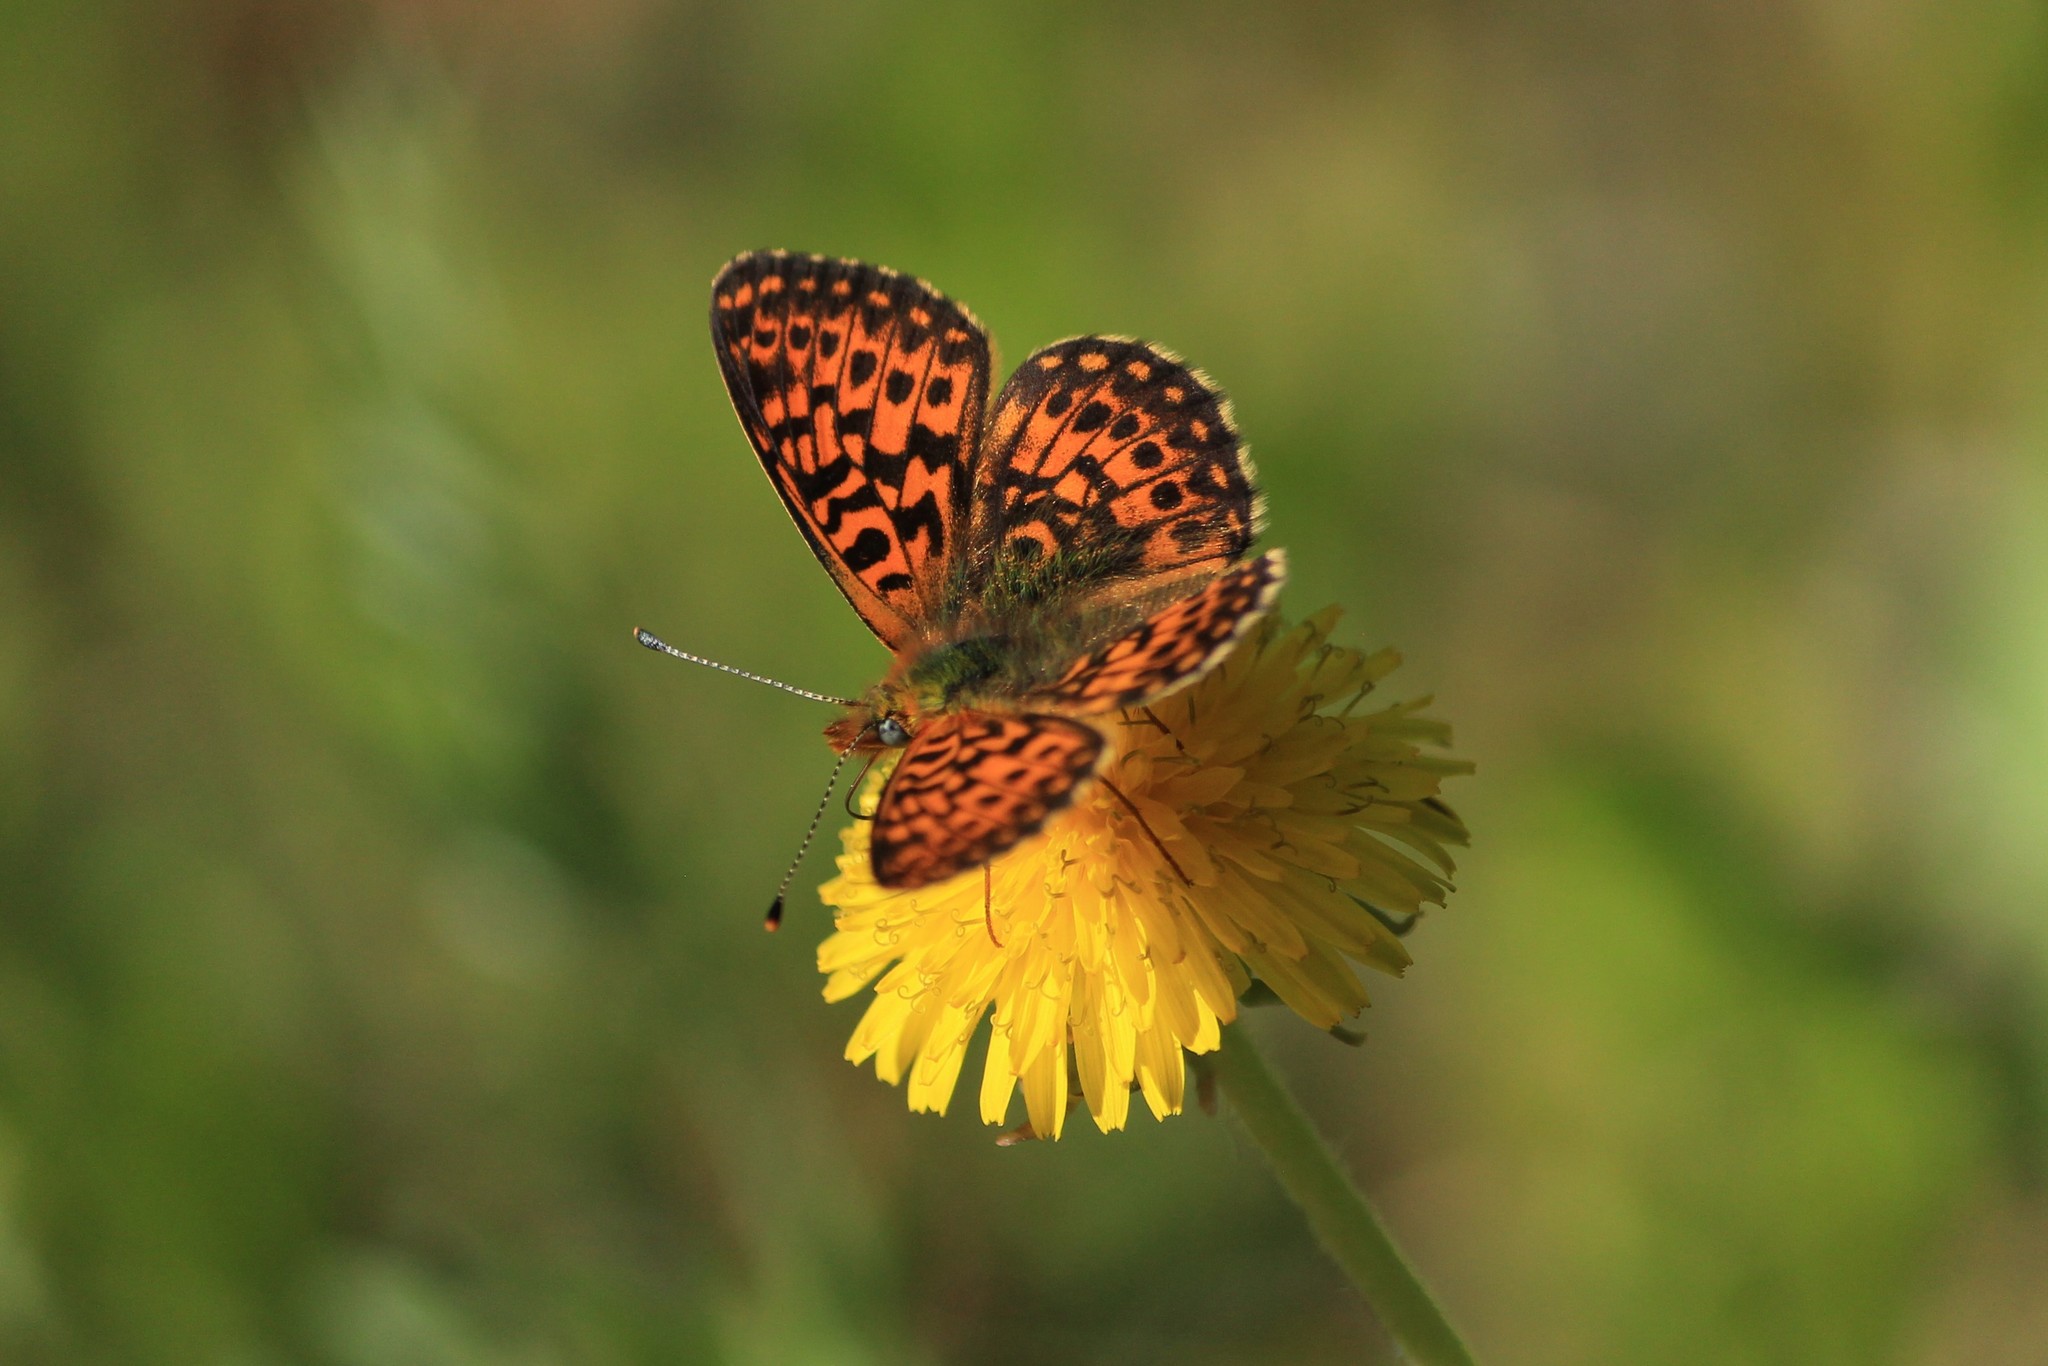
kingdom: Animalia
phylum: Arthropoda
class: Insecta
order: Lepidoptera
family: Nymphalidae
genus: Clossiana
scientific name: Clossiana euphrosyne
